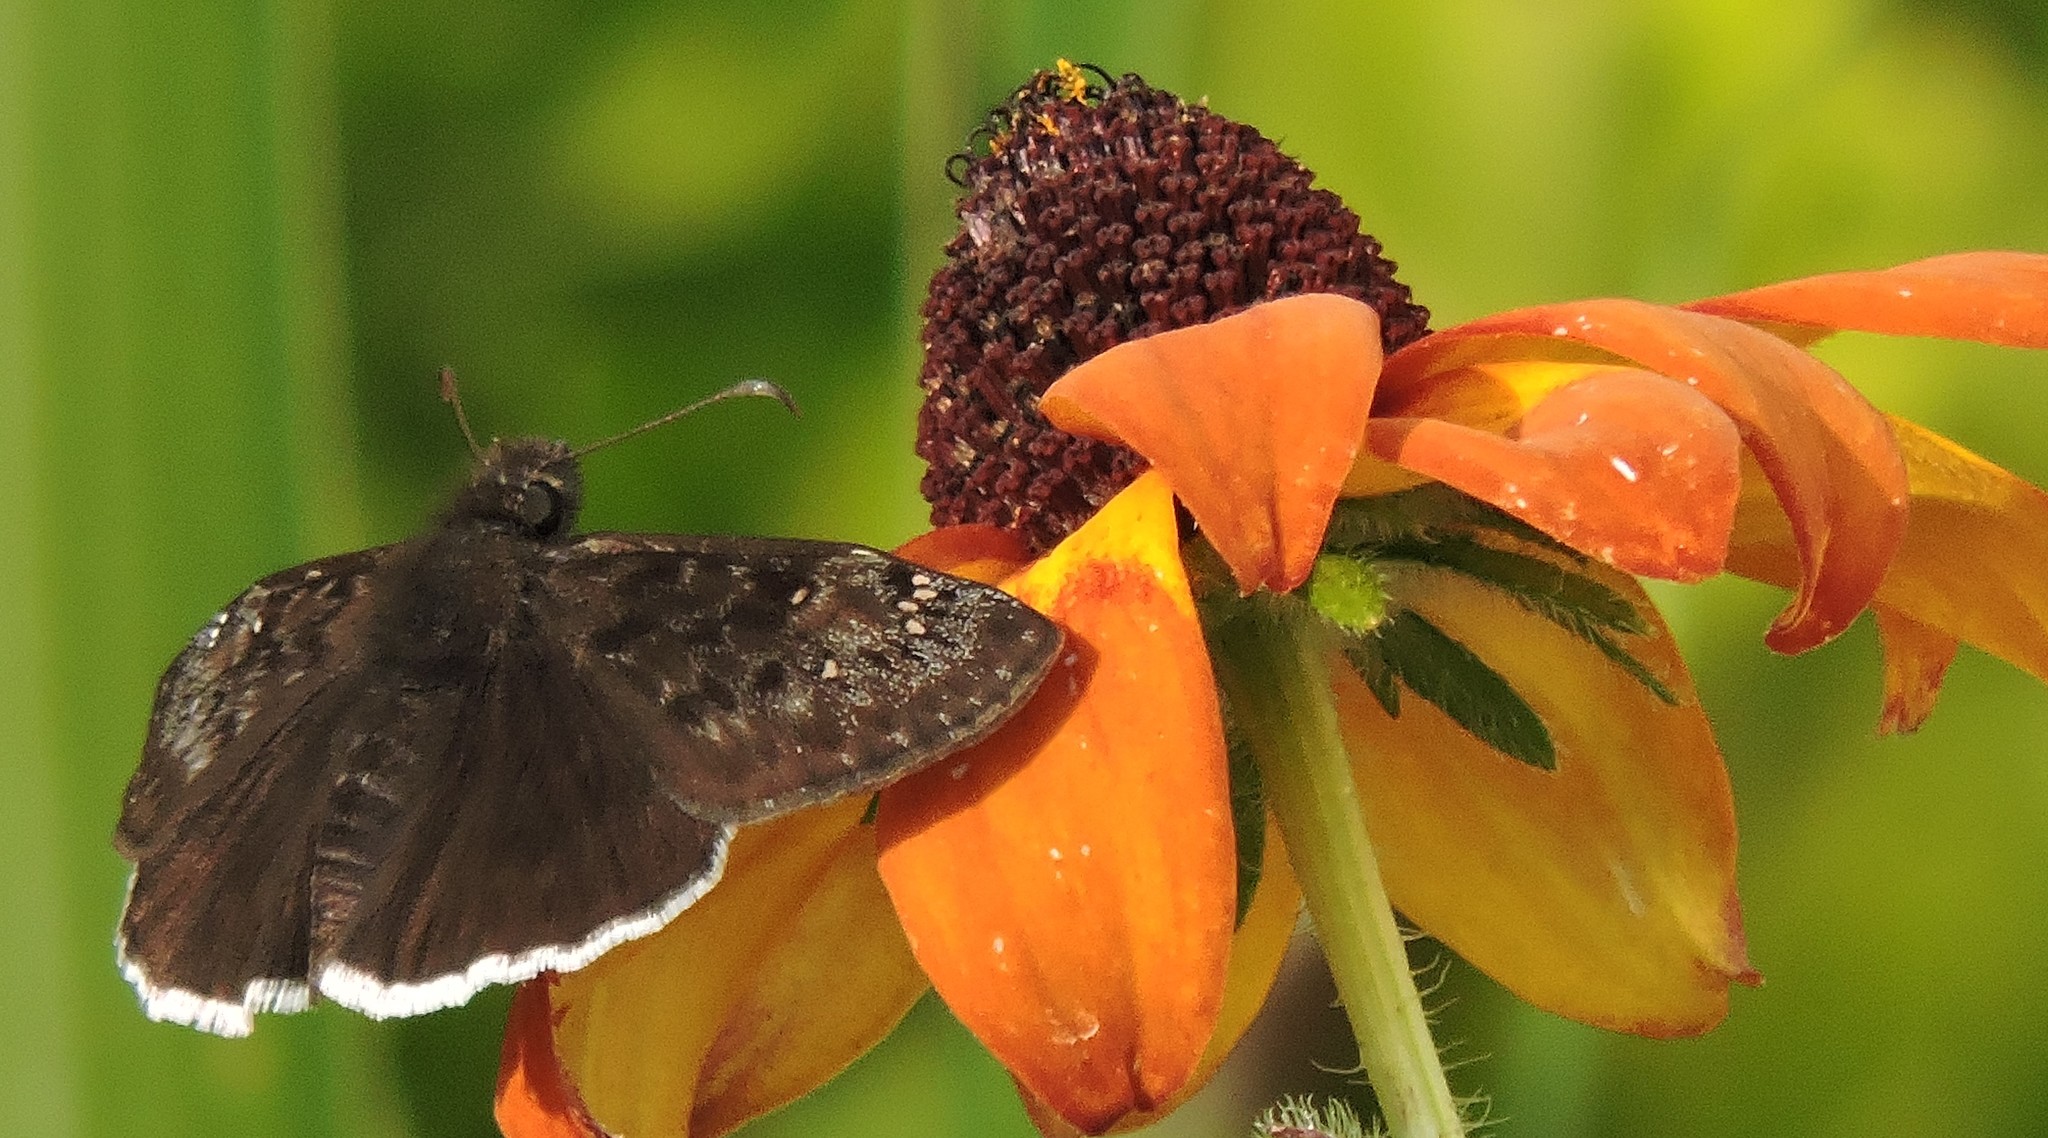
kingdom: Animalia
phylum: Arthropoda
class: Insecta
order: Lepidoptera
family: Hesperiidae
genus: Erynnis
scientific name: Erynnis tristis
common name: Mournful duskywing
